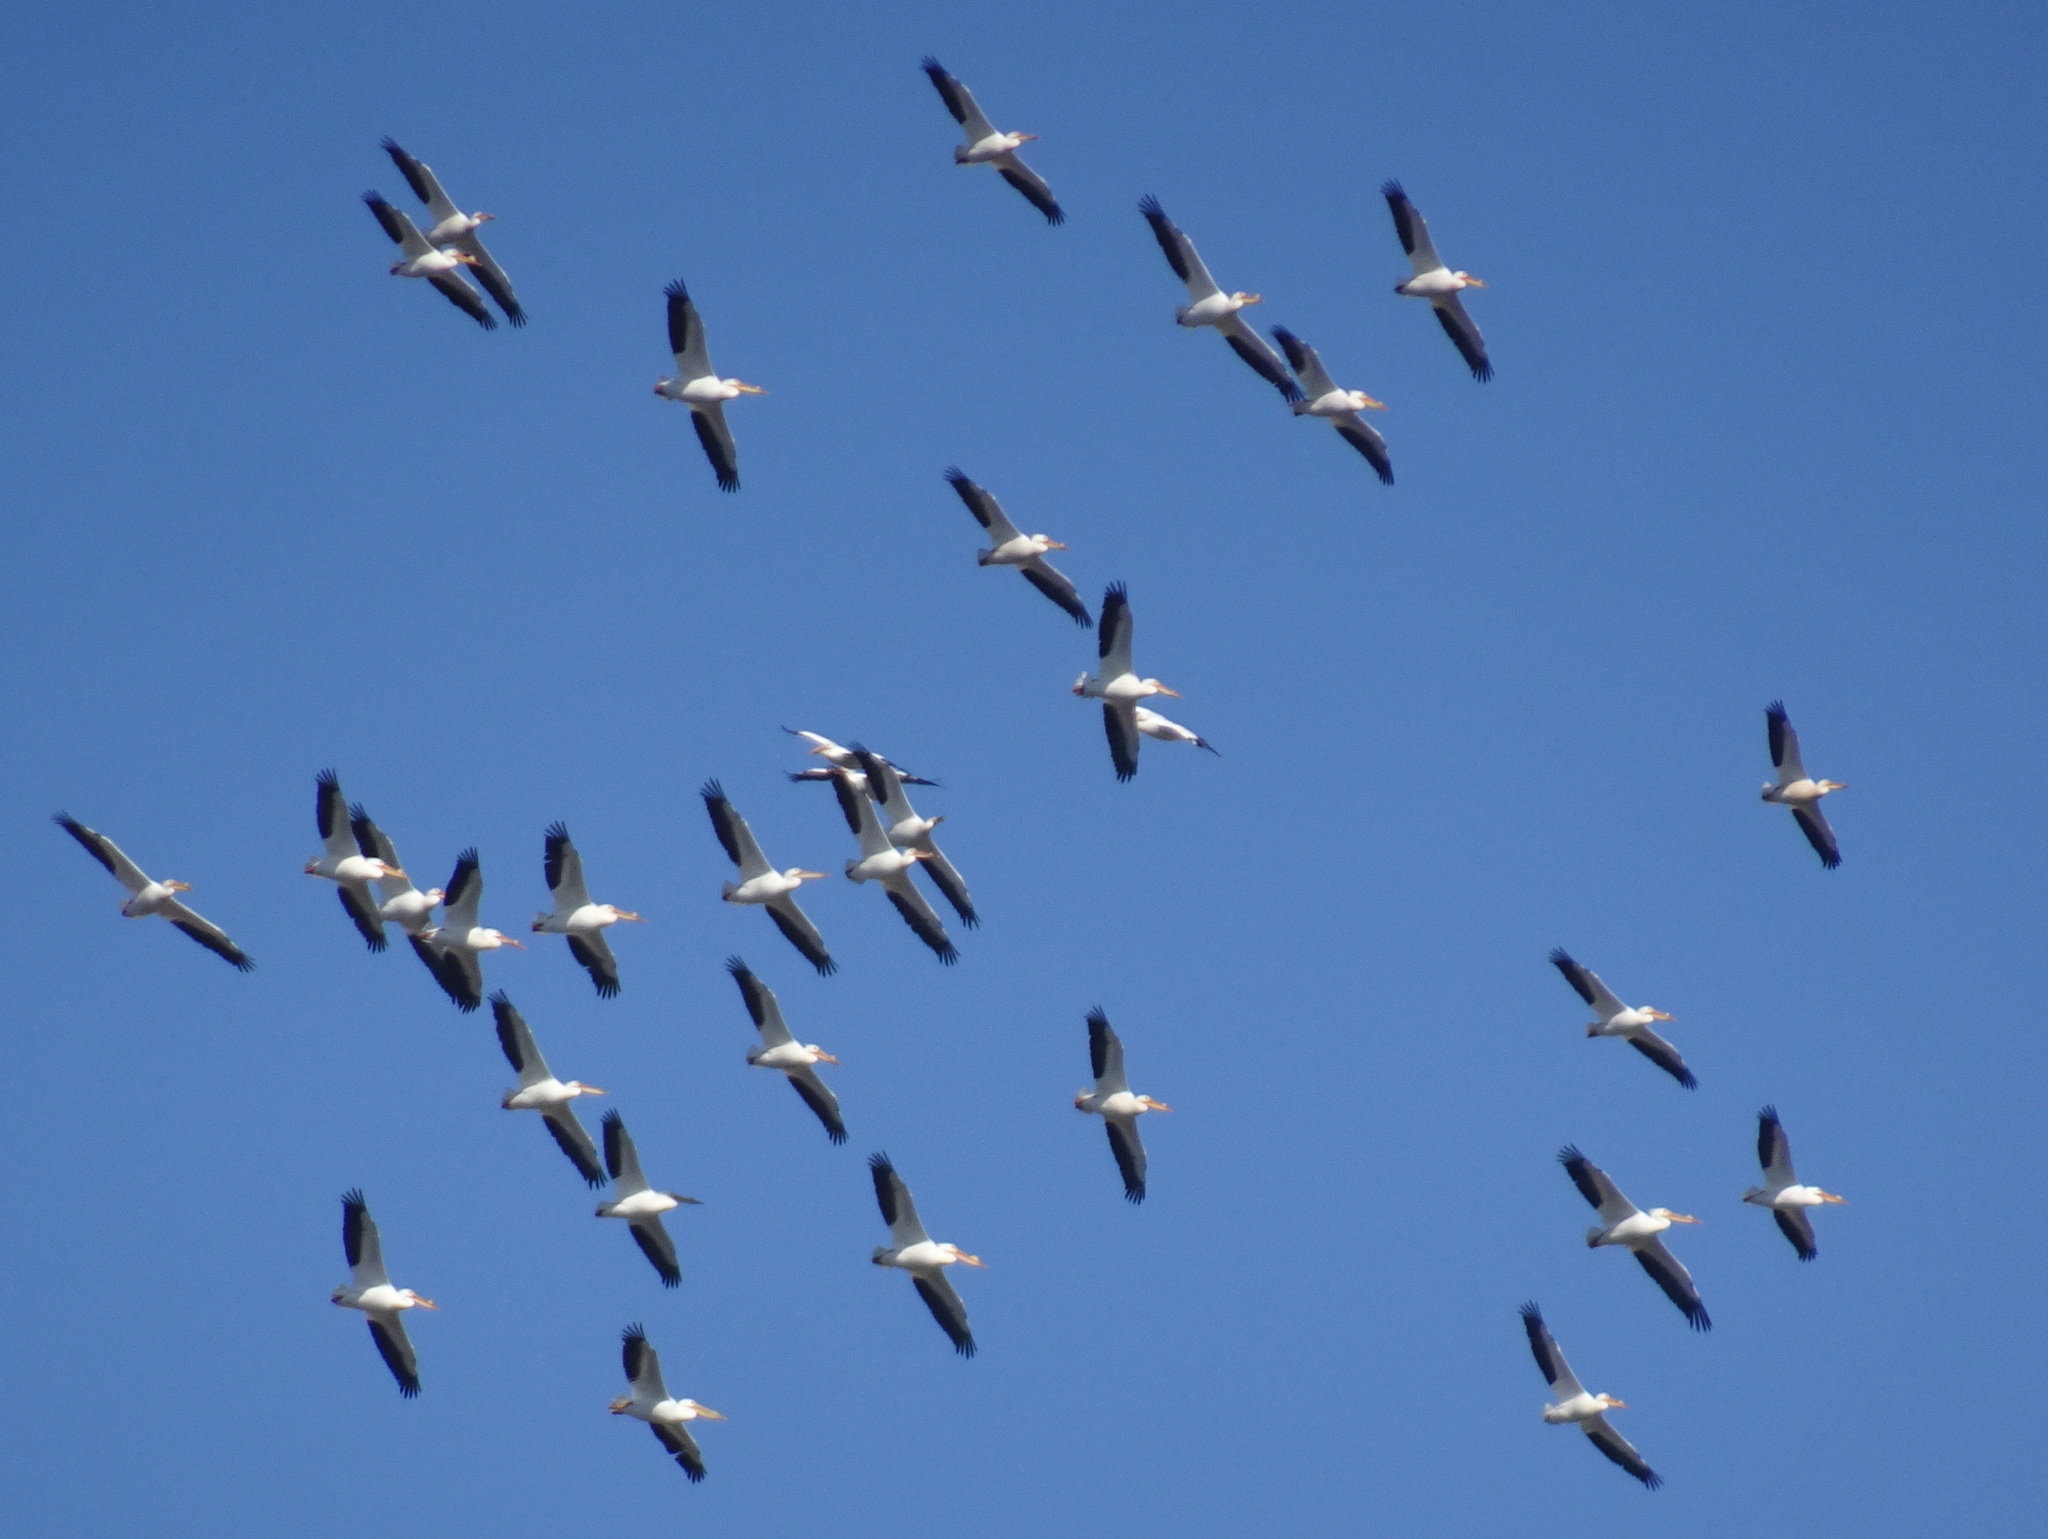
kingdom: Animalia
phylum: Chordata
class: Aves
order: Pelecaniformes
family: Pelecanidae
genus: Pelecanus
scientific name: Pelecanus erythrorhynchos
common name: American white pelican
